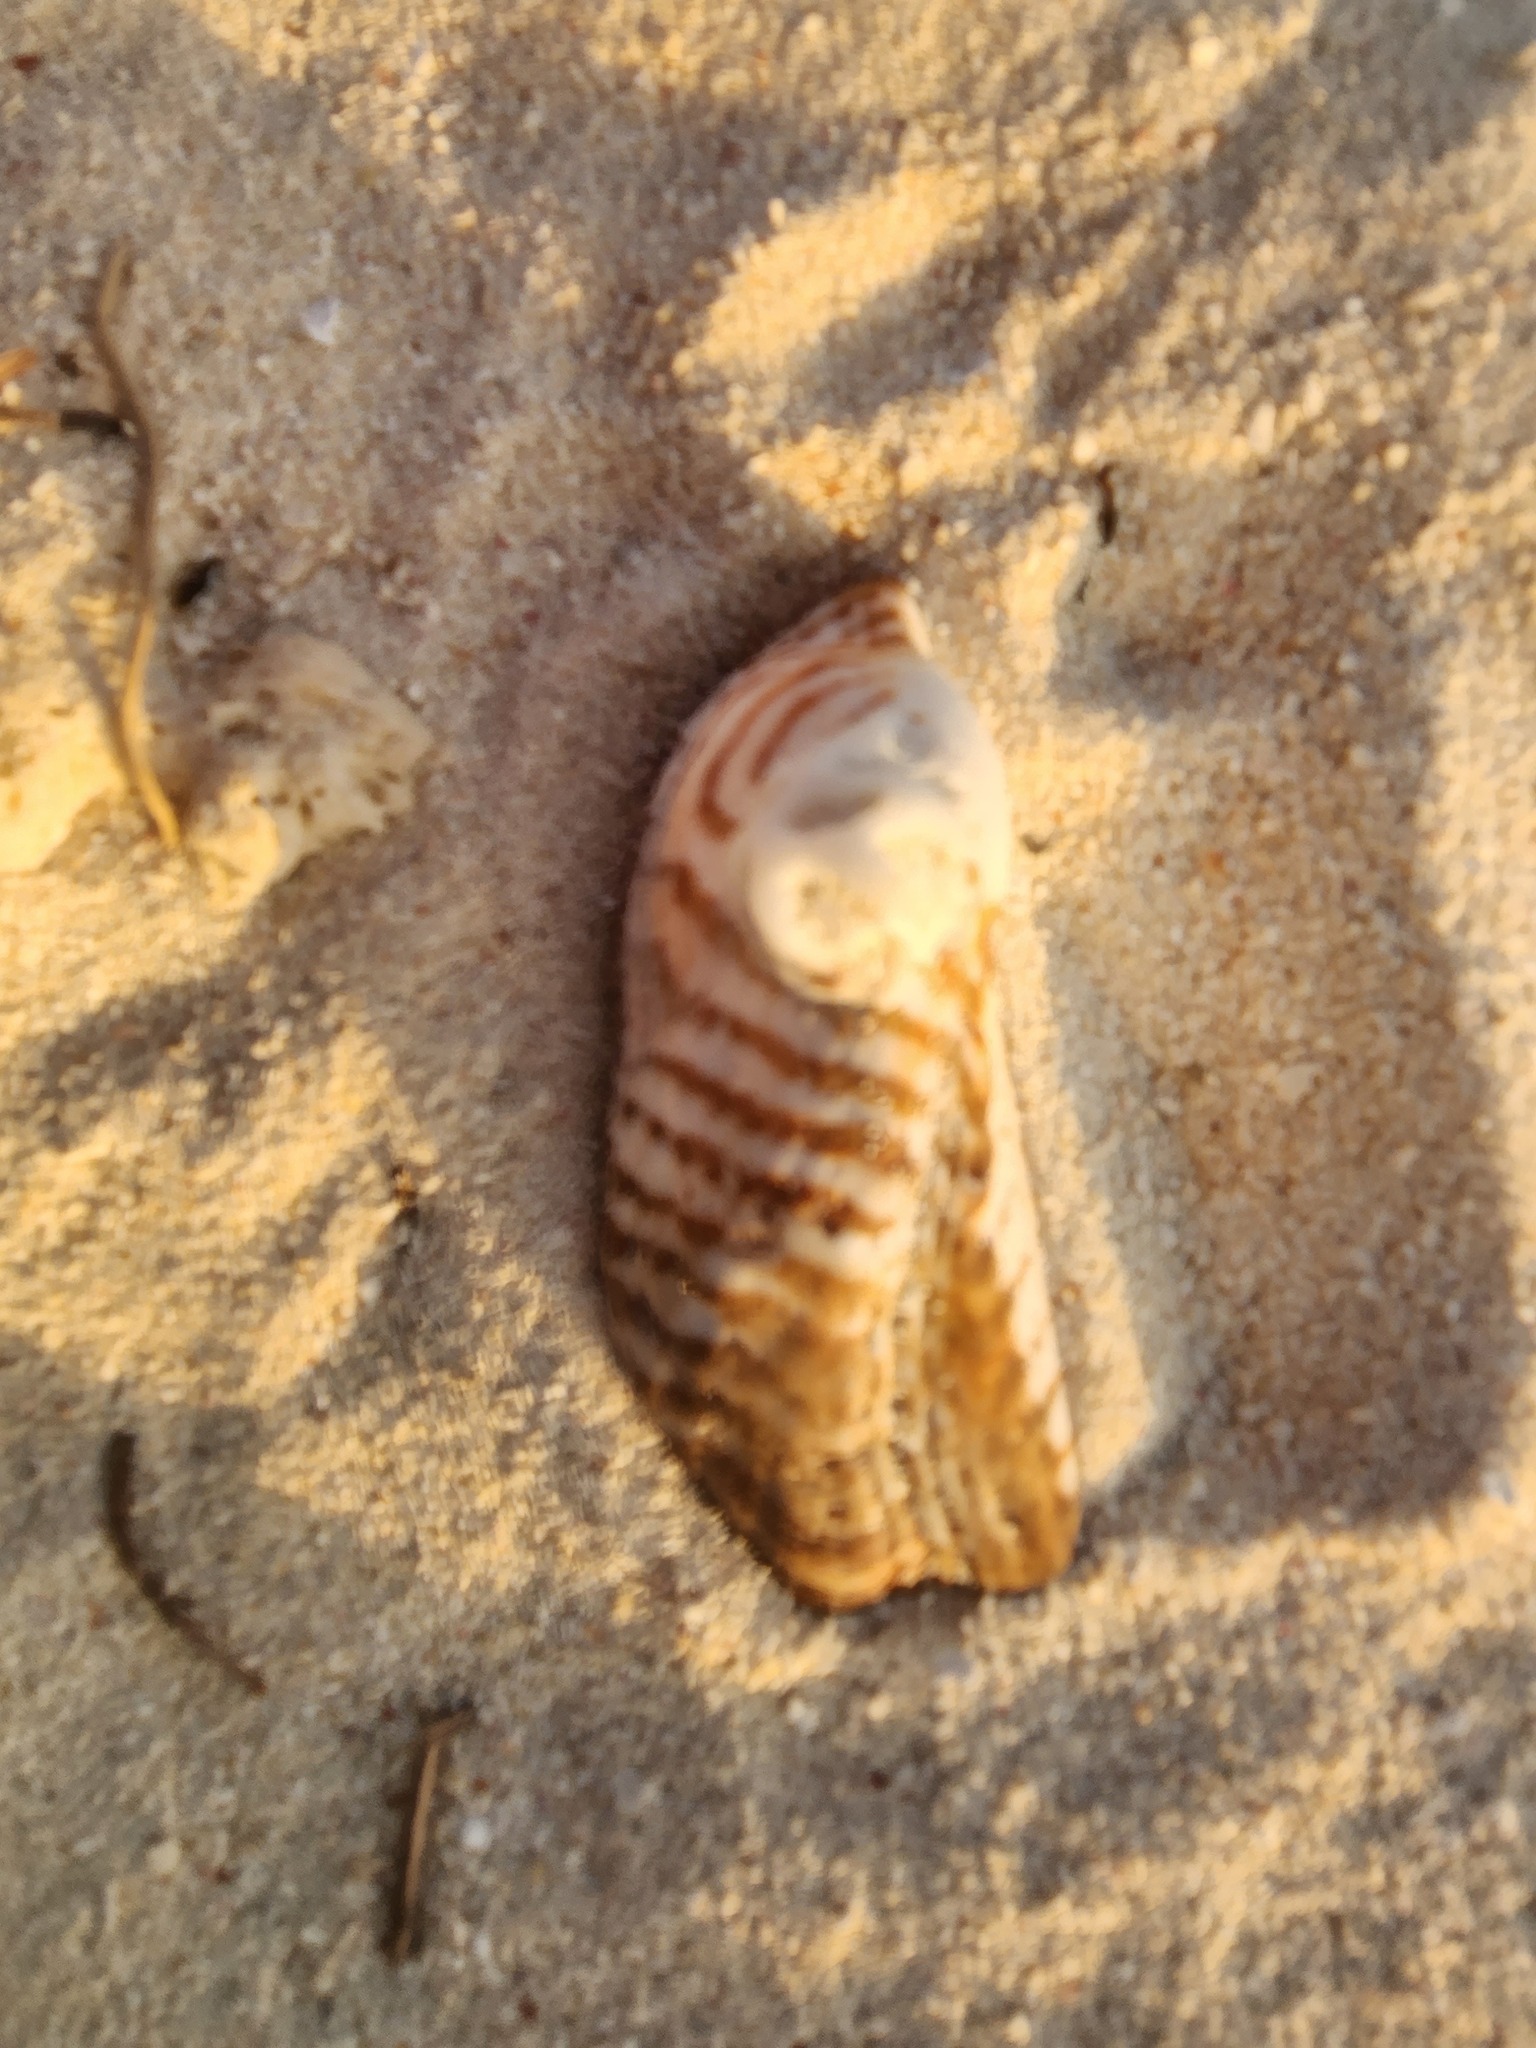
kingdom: Animalia
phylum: Mollusca
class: Bivalvia
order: Arcida
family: Arcidae
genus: Arca
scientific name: Arca zebra
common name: Atlantic turkey wing
